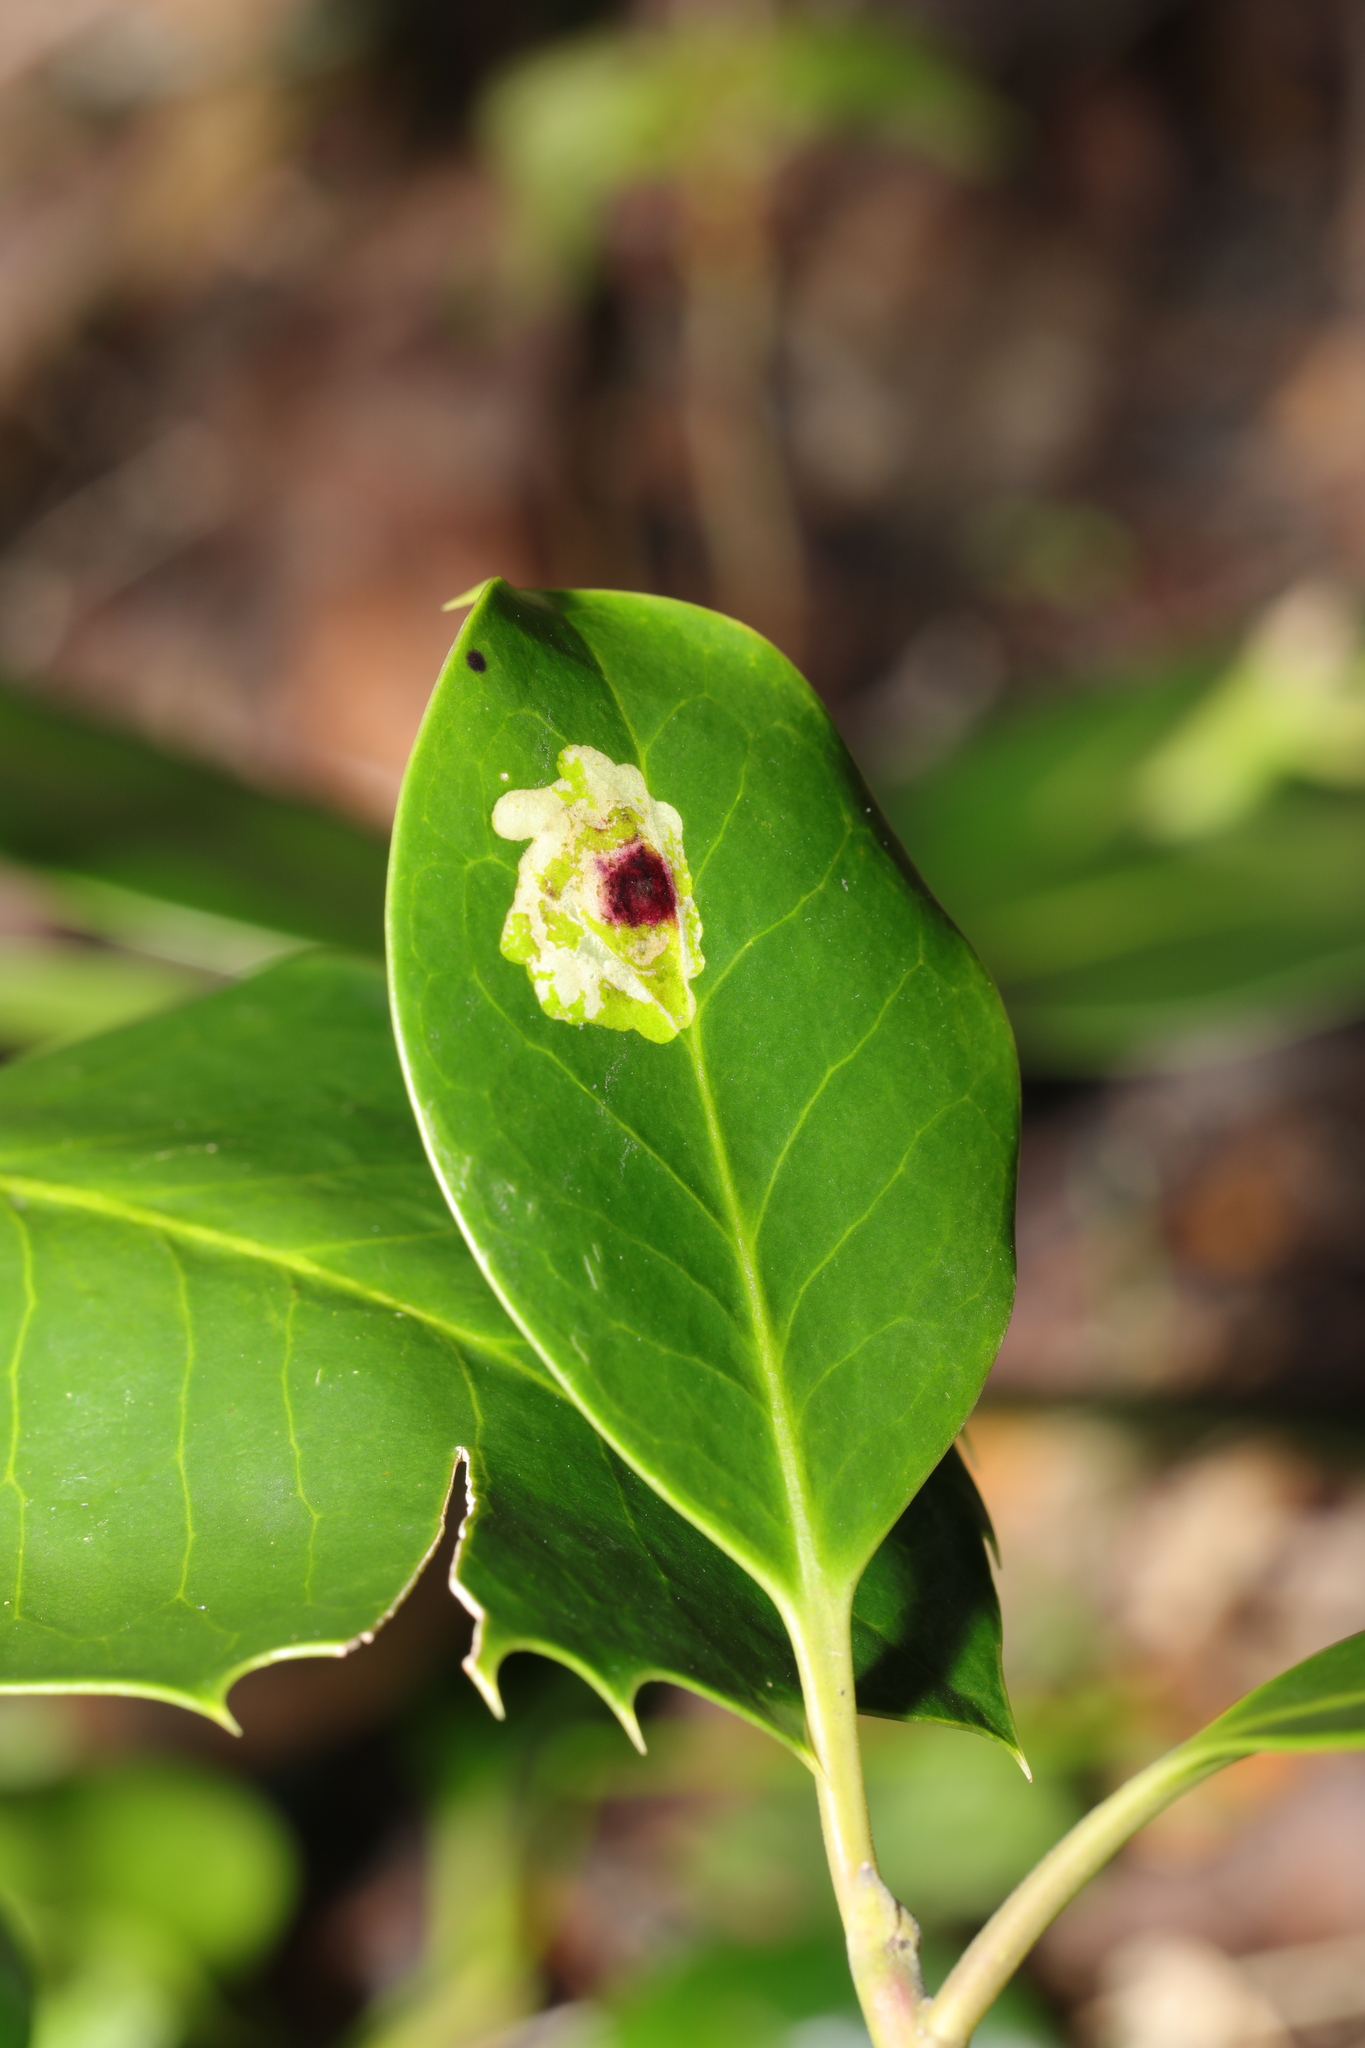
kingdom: Animalia
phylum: Arthropoda
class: Insecta
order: Diptera
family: Agromyzidae
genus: Phytomyza
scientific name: Phytomyza ilicis
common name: Holly leafminer
